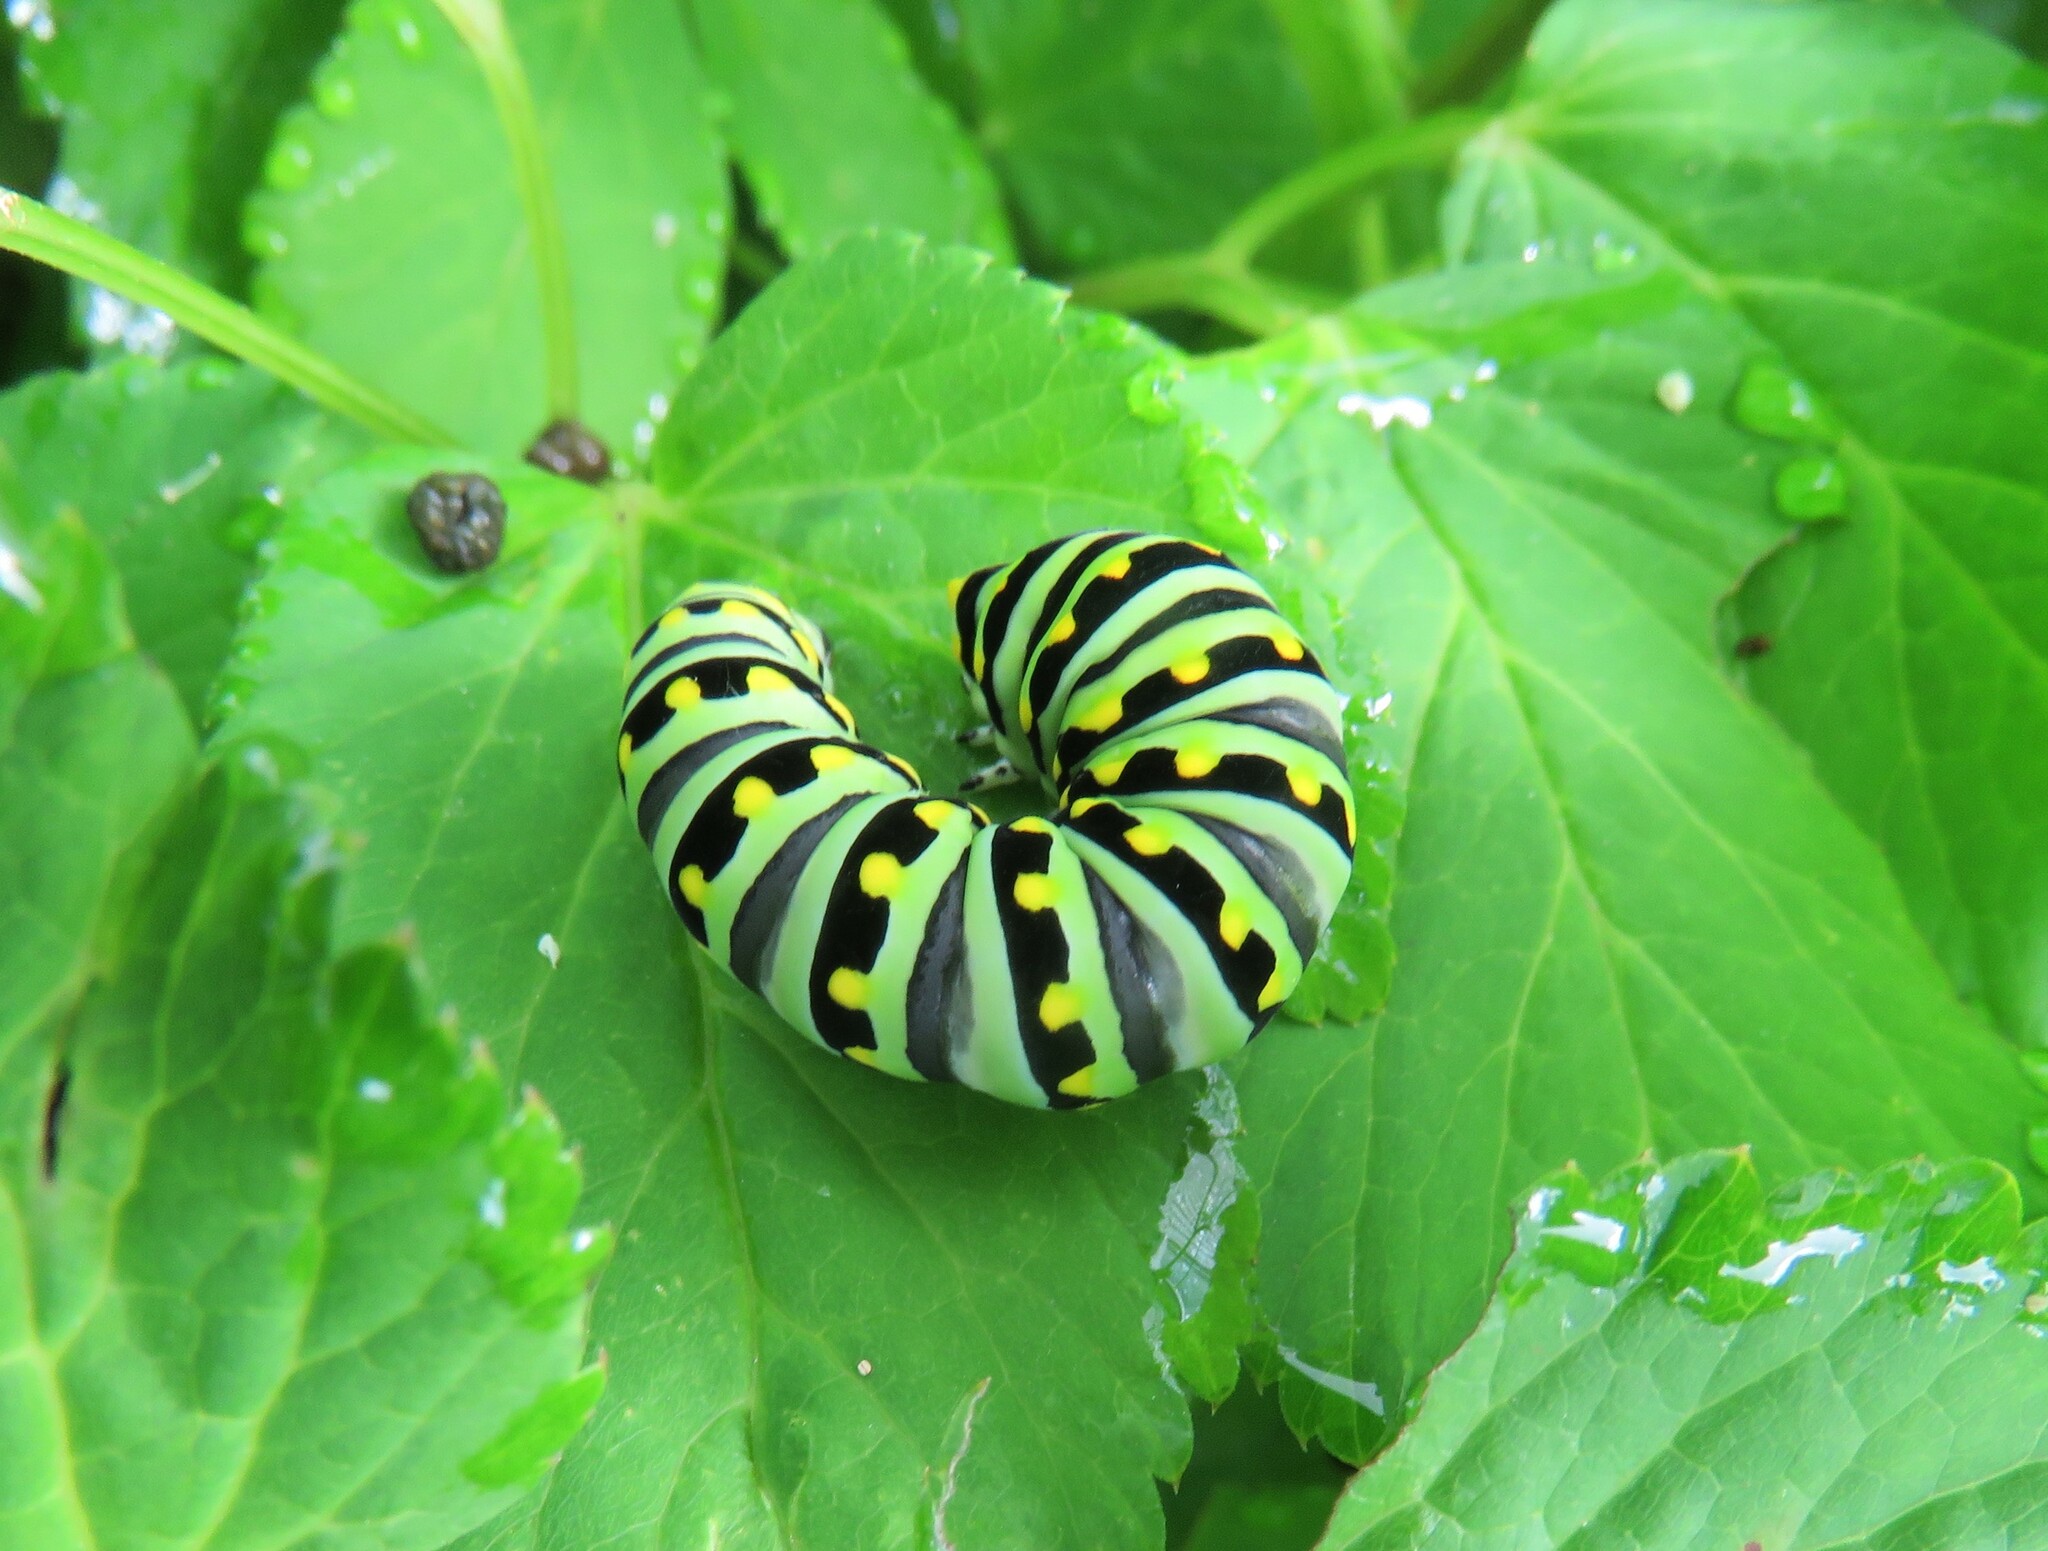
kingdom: Animalia
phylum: Arthropoda
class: Insecta
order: Lepidoptera
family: Papilionidae
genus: Papilio
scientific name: Papilio polyxenes
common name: Black swallowtail
